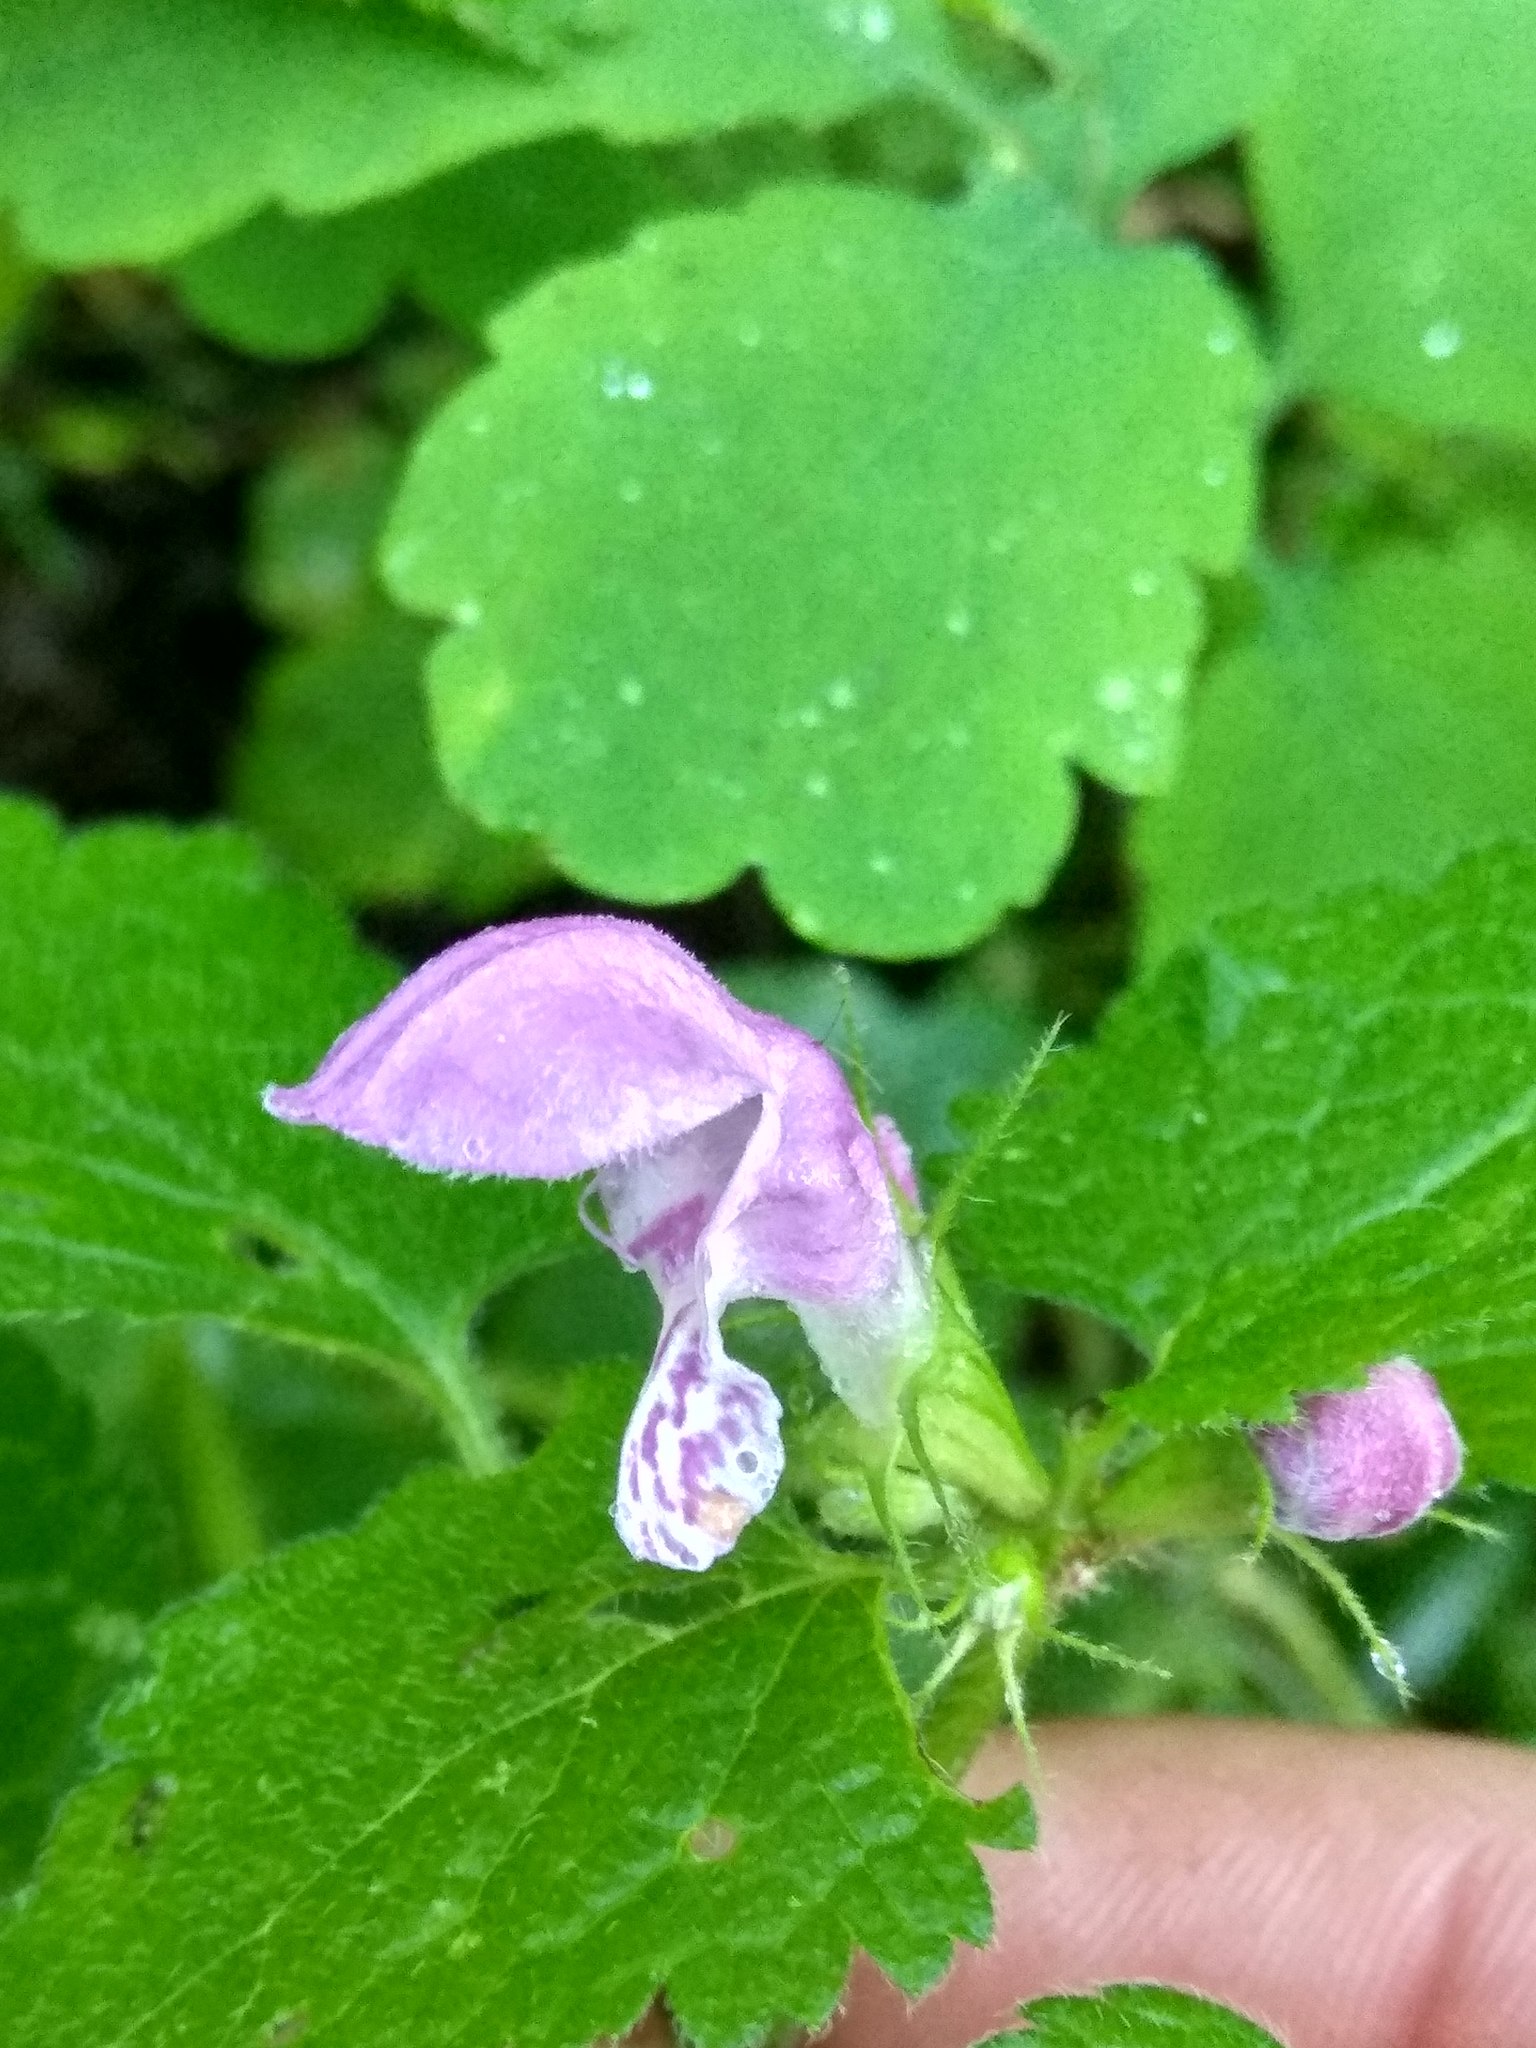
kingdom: Plantae
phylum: Tracheophyta
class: Magnoliopsida
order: Lamiales
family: Lamiaceae
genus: Lamium
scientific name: Lamium maculatum
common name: Spotted dead-nettle
